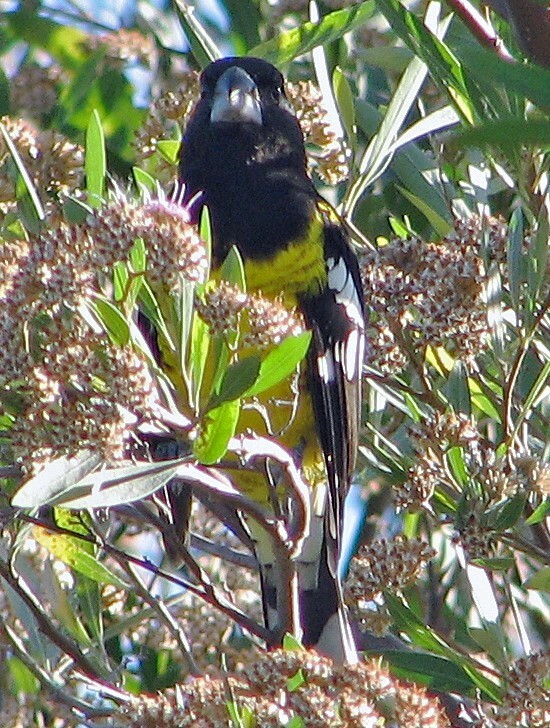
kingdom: Animalia
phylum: Chordata
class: Aves
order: Passeriformes
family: Cardinalidae
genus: Pheucticus
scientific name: Pheucticus aureoventris
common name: Black-backed grosbeak
